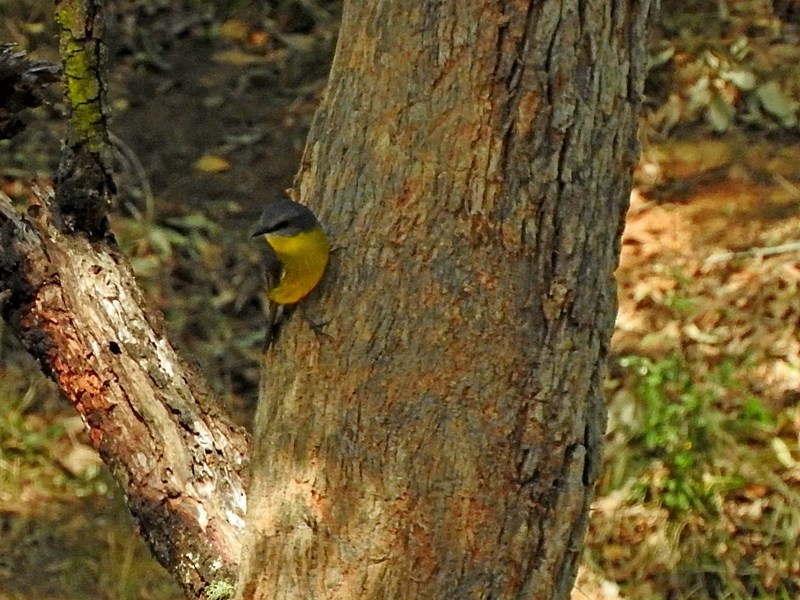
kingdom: Animalia
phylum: Chordata
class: Aves
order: Passeriformes
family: Petroicidae
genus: Eopsaltria
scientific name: Eopsaltria australis
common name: Eastern yellow robin
